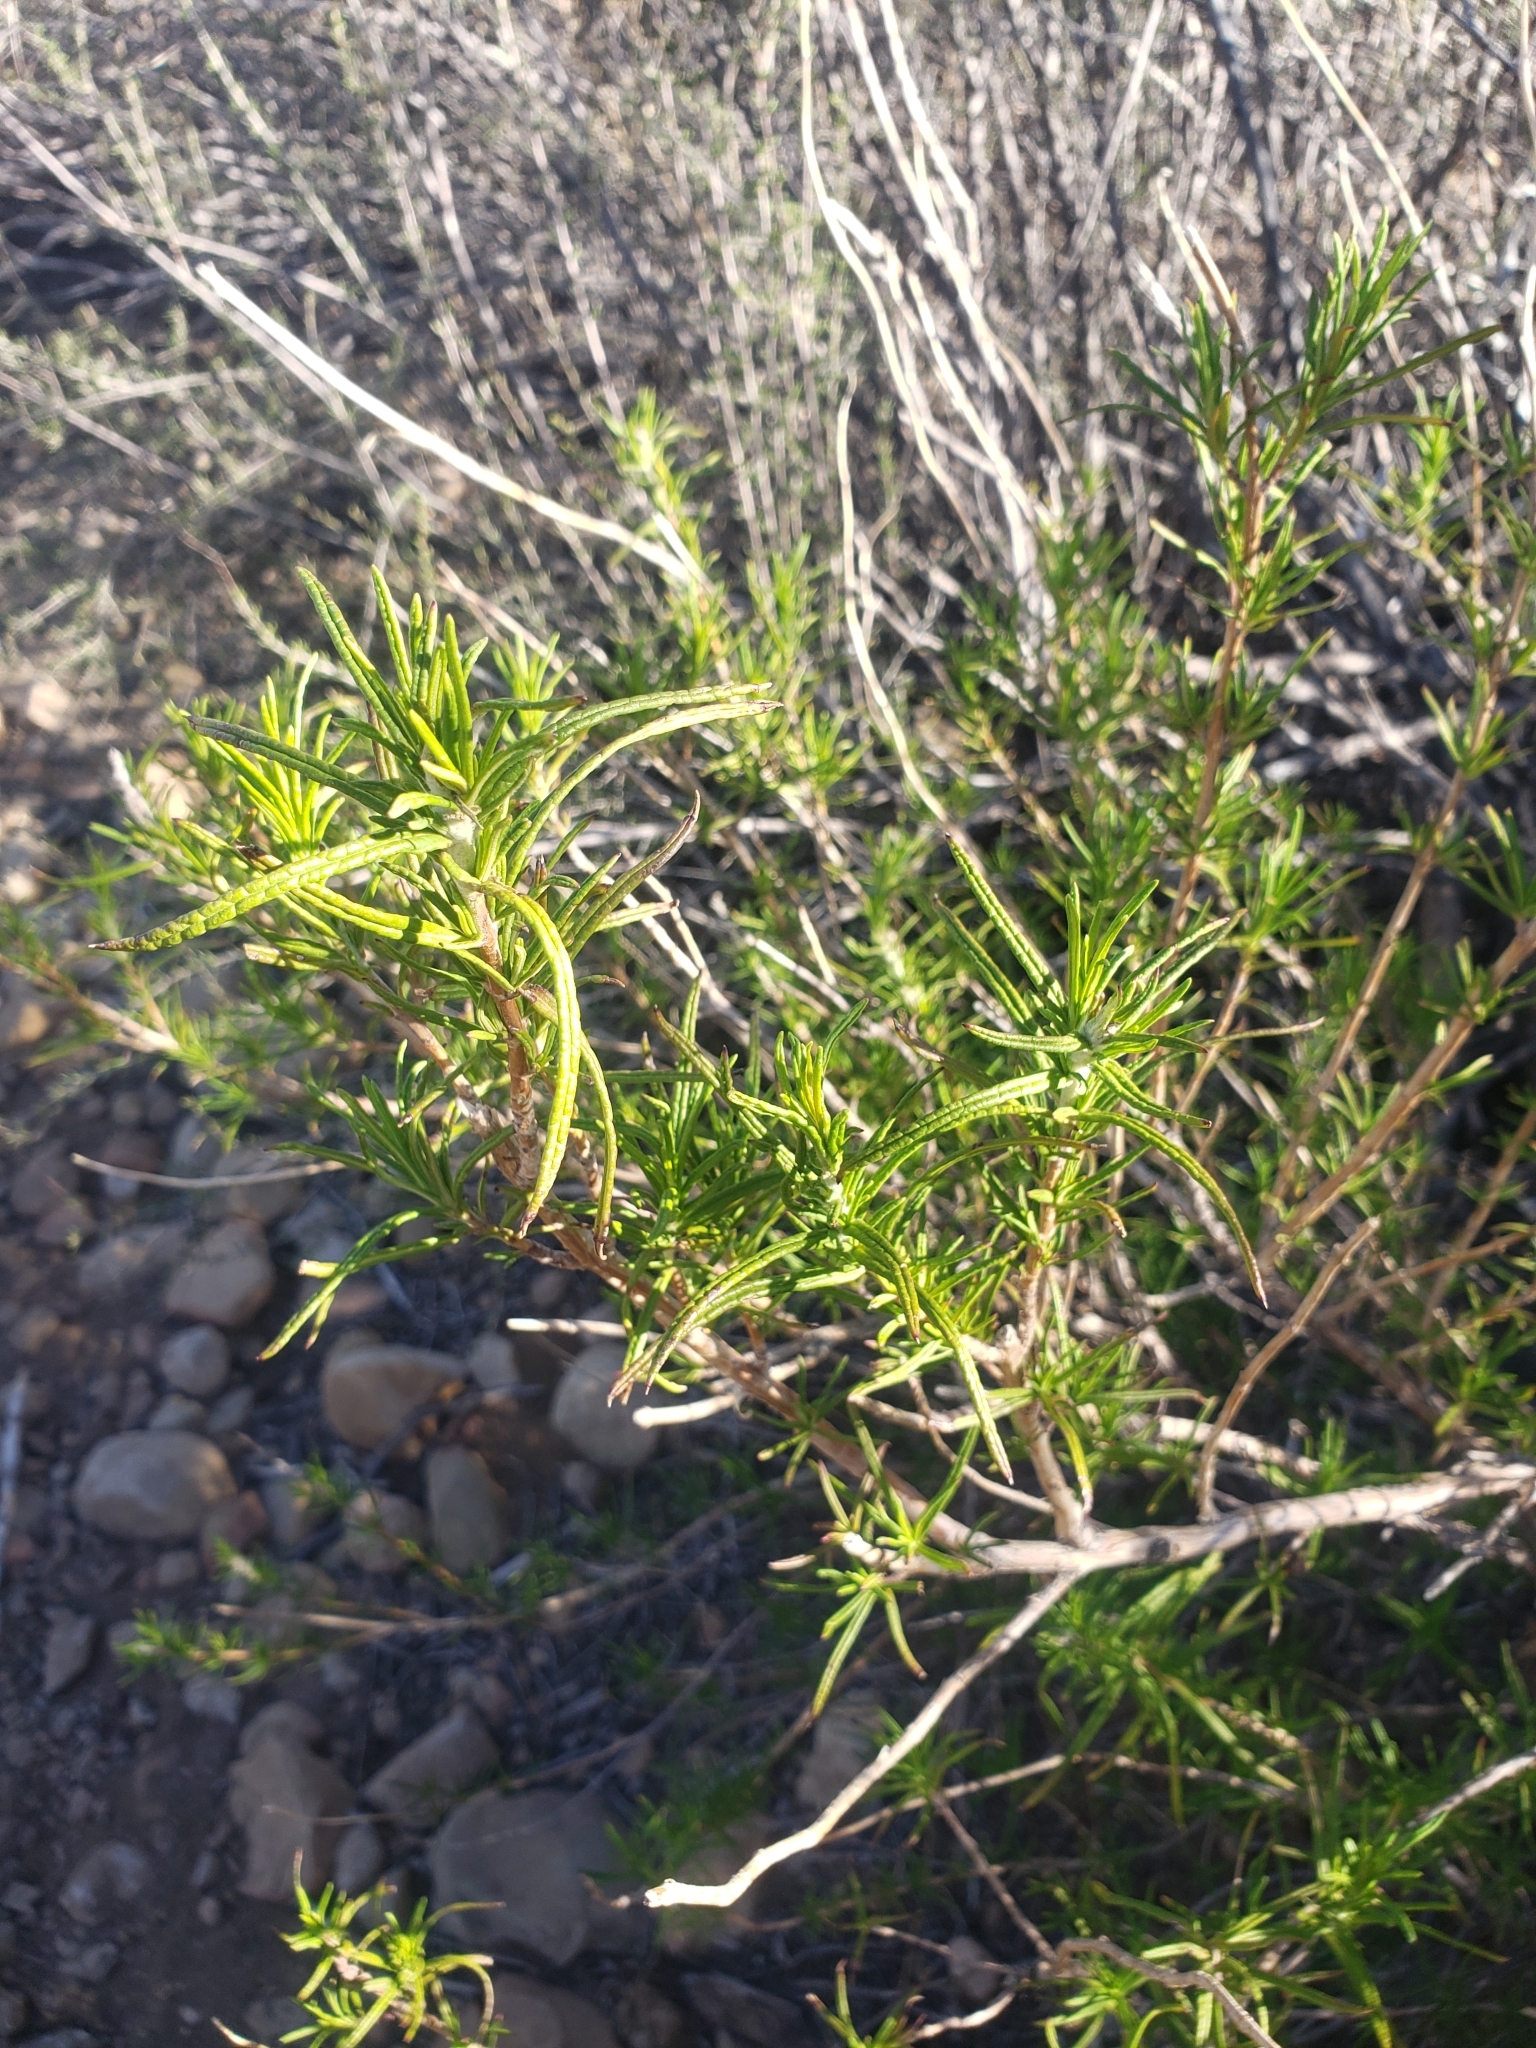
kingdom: Plantae
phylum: Tracheophyta
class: Magnoliopsida
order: Lamiales
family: Lamiaceae
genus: Trichostema
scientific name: Trichostema lanatum
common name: Woolly bluecurls
